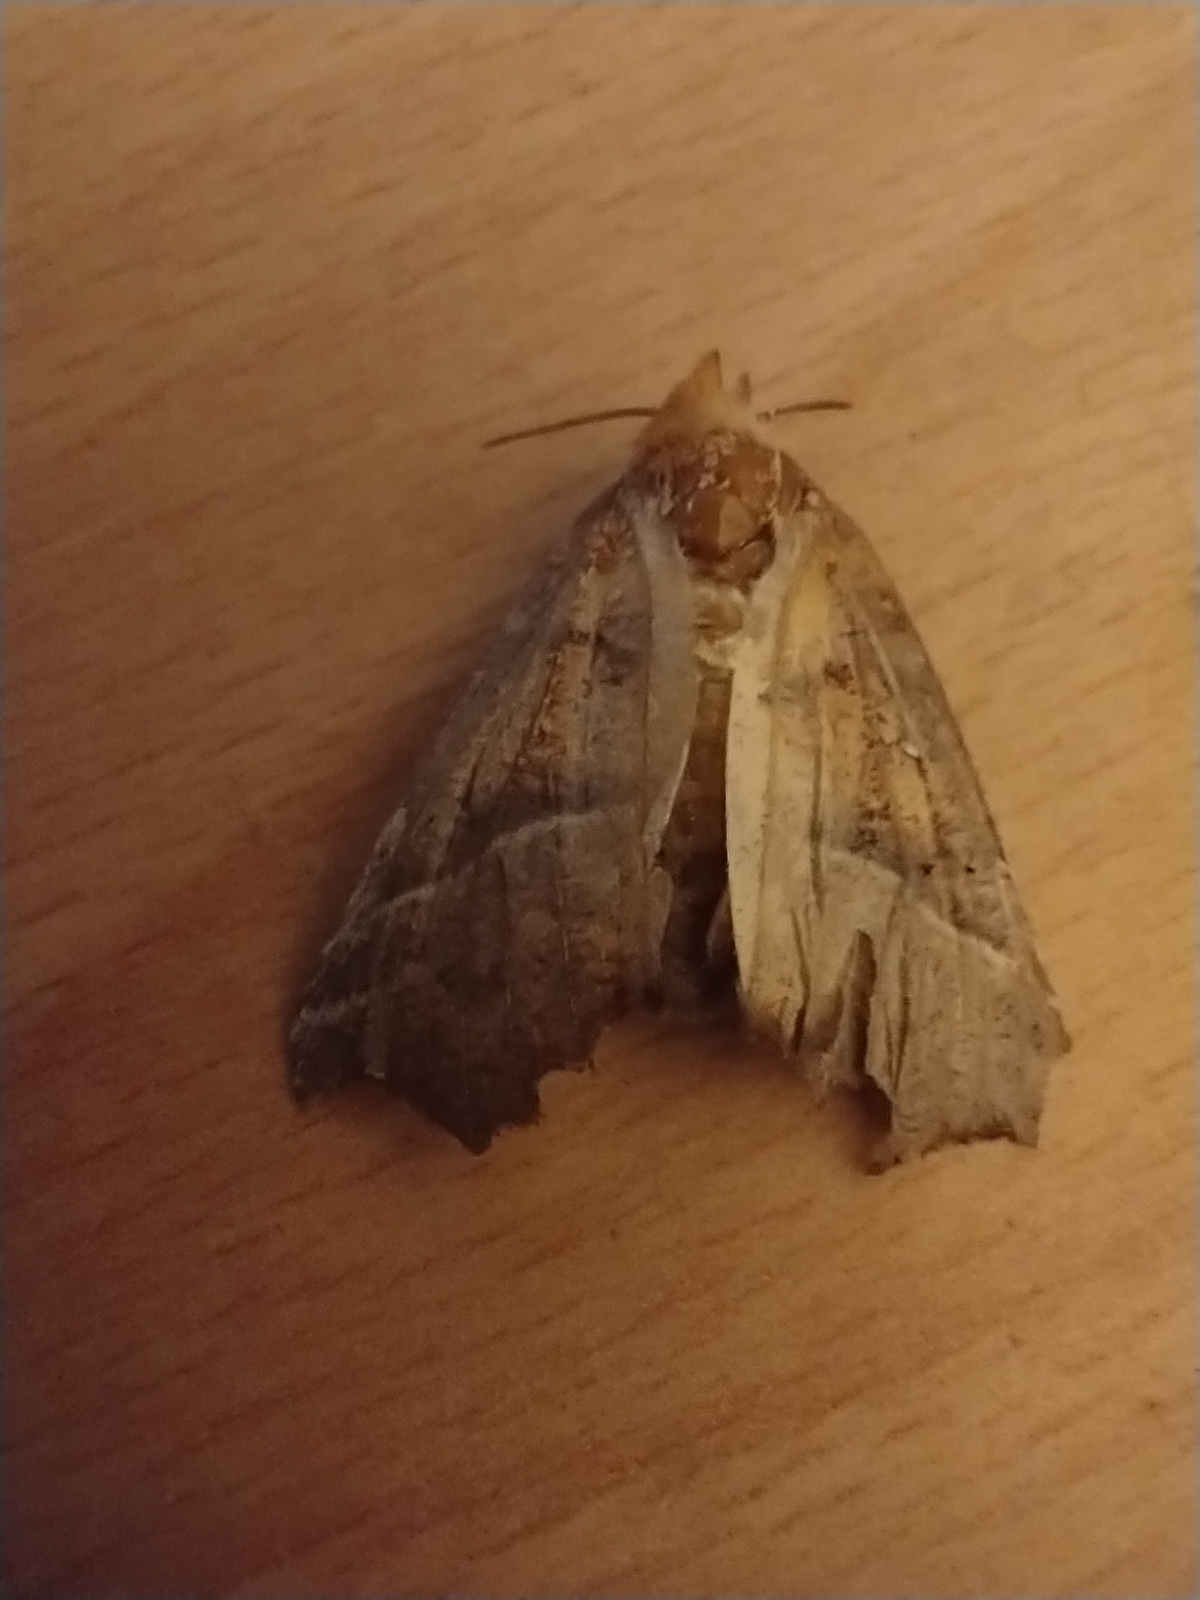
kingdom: Animalia
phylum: Arthropoda
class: Insecta
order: Lepidoptera
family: Erebidae
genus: Scoliopteryx
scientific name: Scoliopteryx libatrix
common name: Herald
